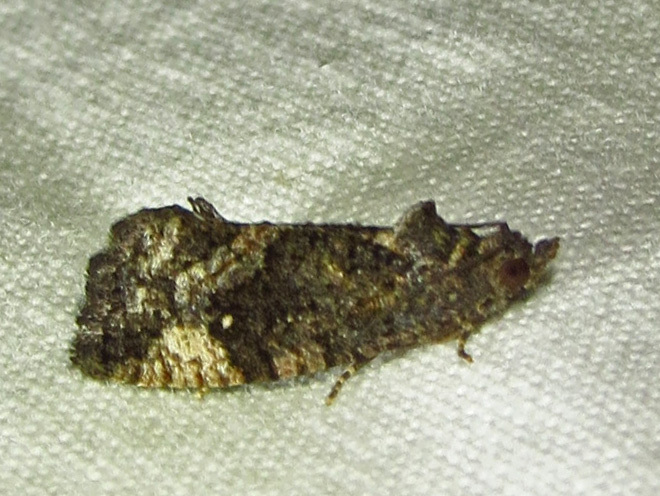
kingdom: Animalia
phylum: Arthropoda
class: Insecta
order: Lepidoptera
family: Tortricidae
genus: Gymnandrosoma
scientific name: Gymnandrosoma punctidiscanum
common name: Dotted ecdytolopha moth
